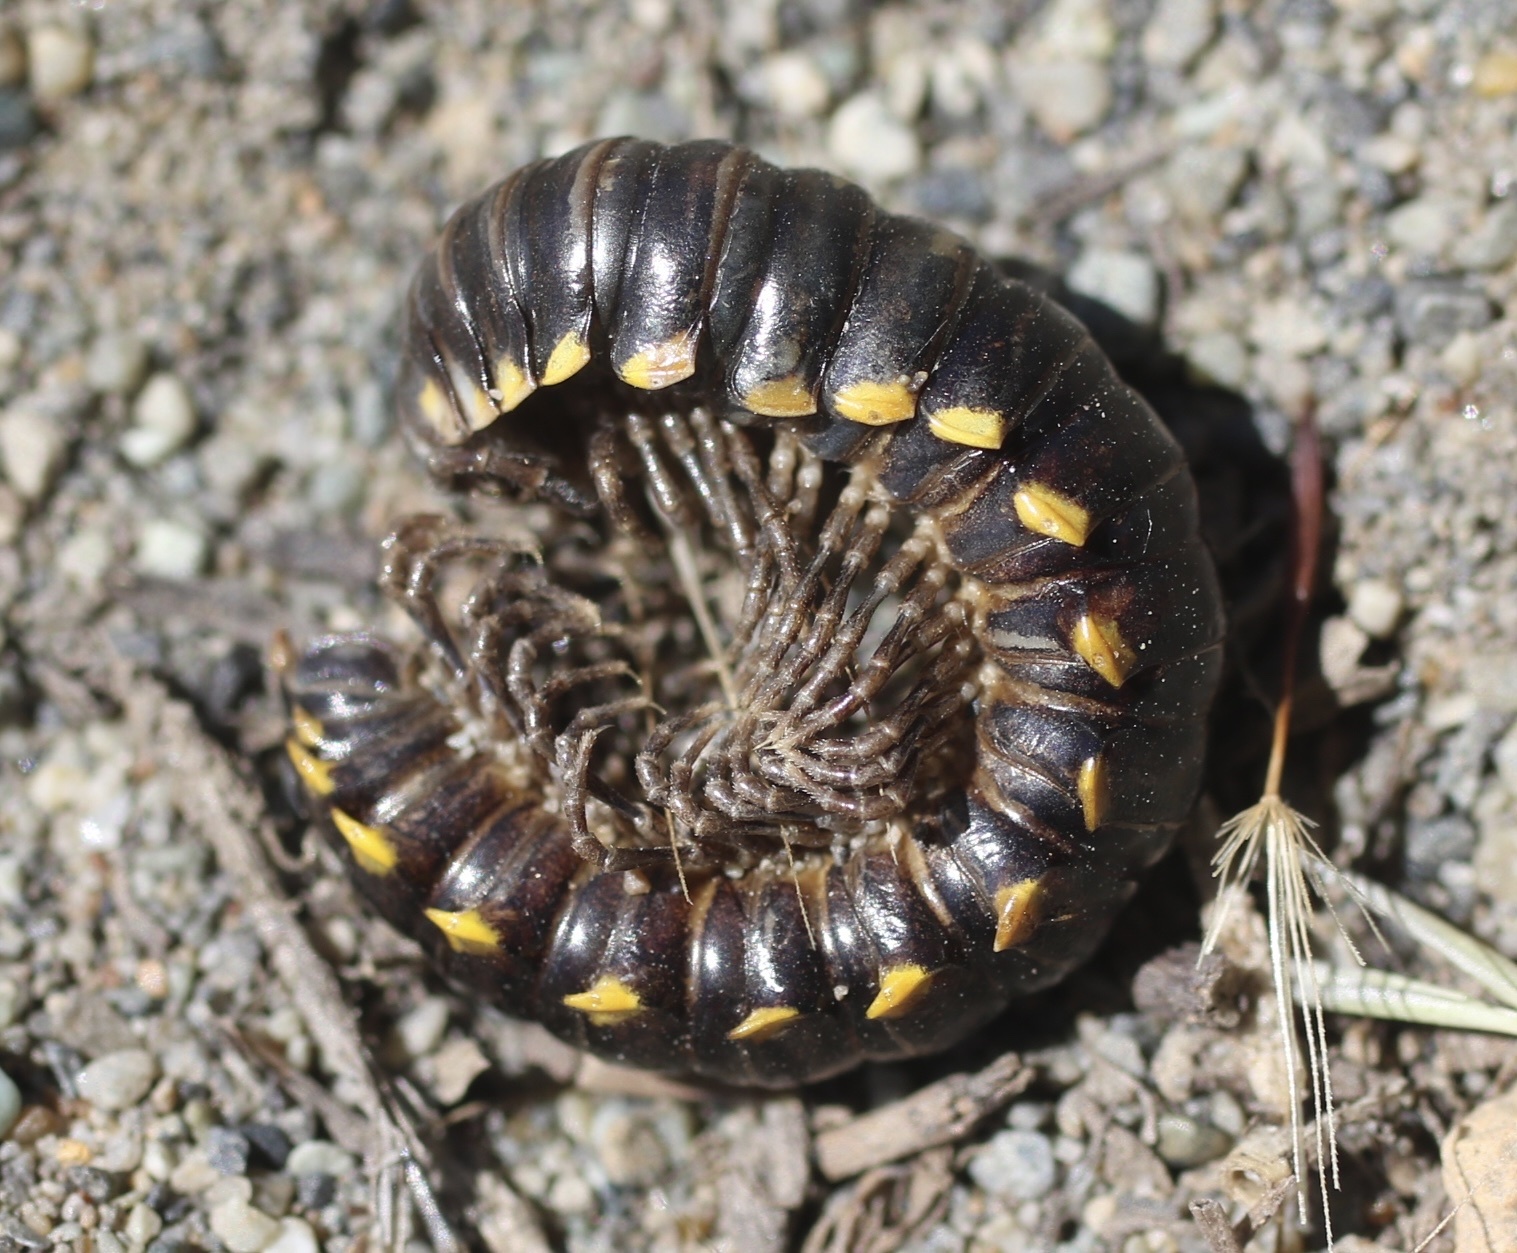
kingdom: Animalia
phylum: Arthropoda
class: Diplopoda
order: Polydesmida
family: Xystodesmidae
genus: Harpaphe
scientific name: Harpaphe haydeniana
